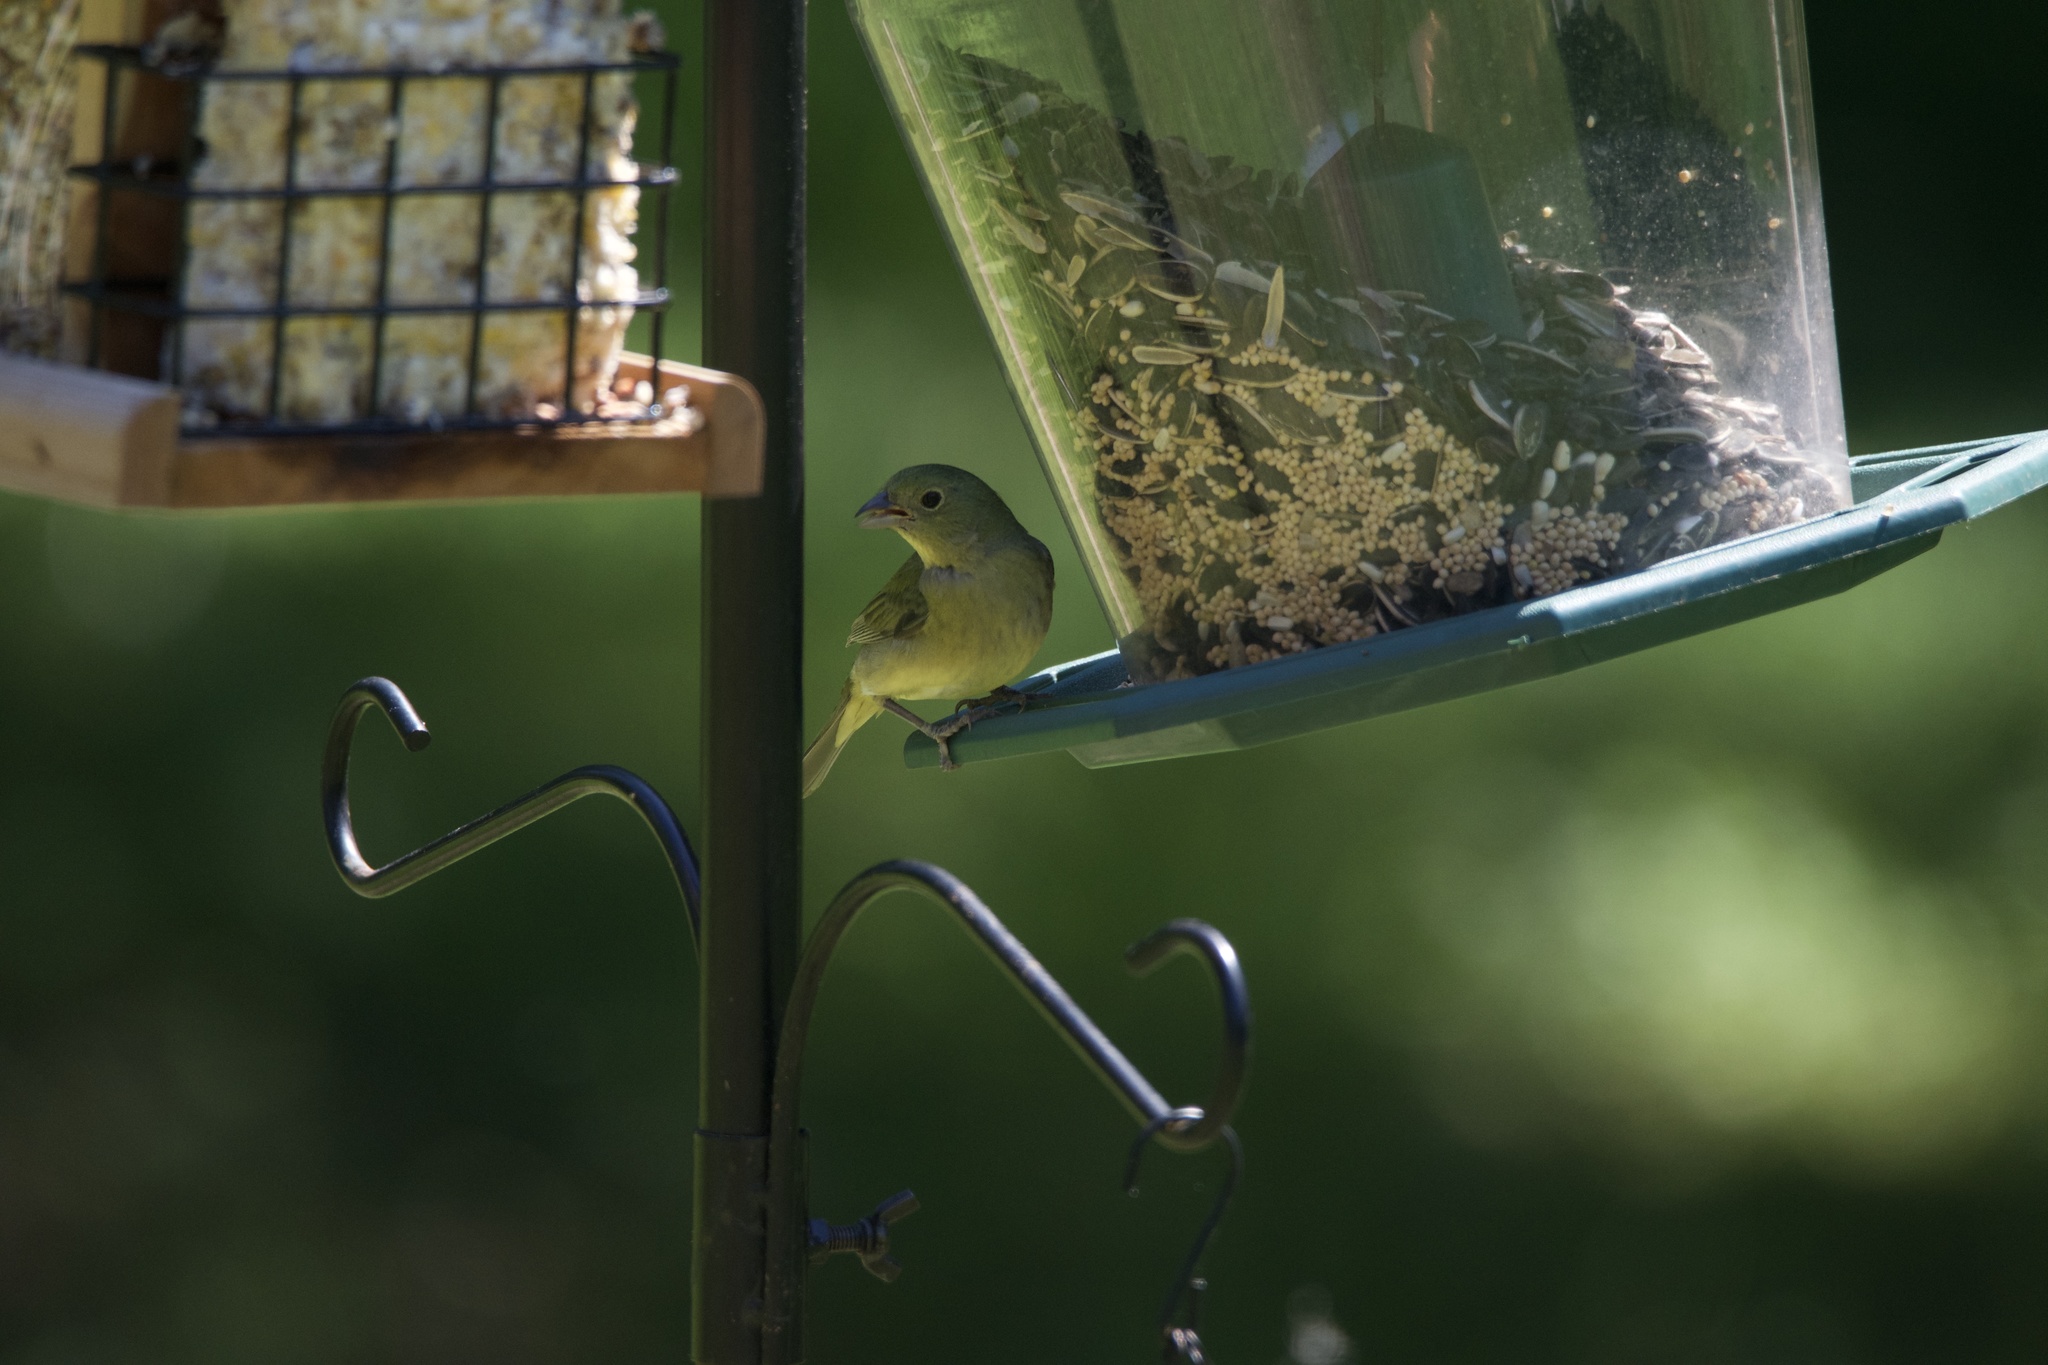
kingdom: Animalia
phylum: Chordata
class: Aves
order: Passeriformes
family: Cardinalidae
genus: Passerina
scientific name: Passerina ciris
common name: Painted bunting
